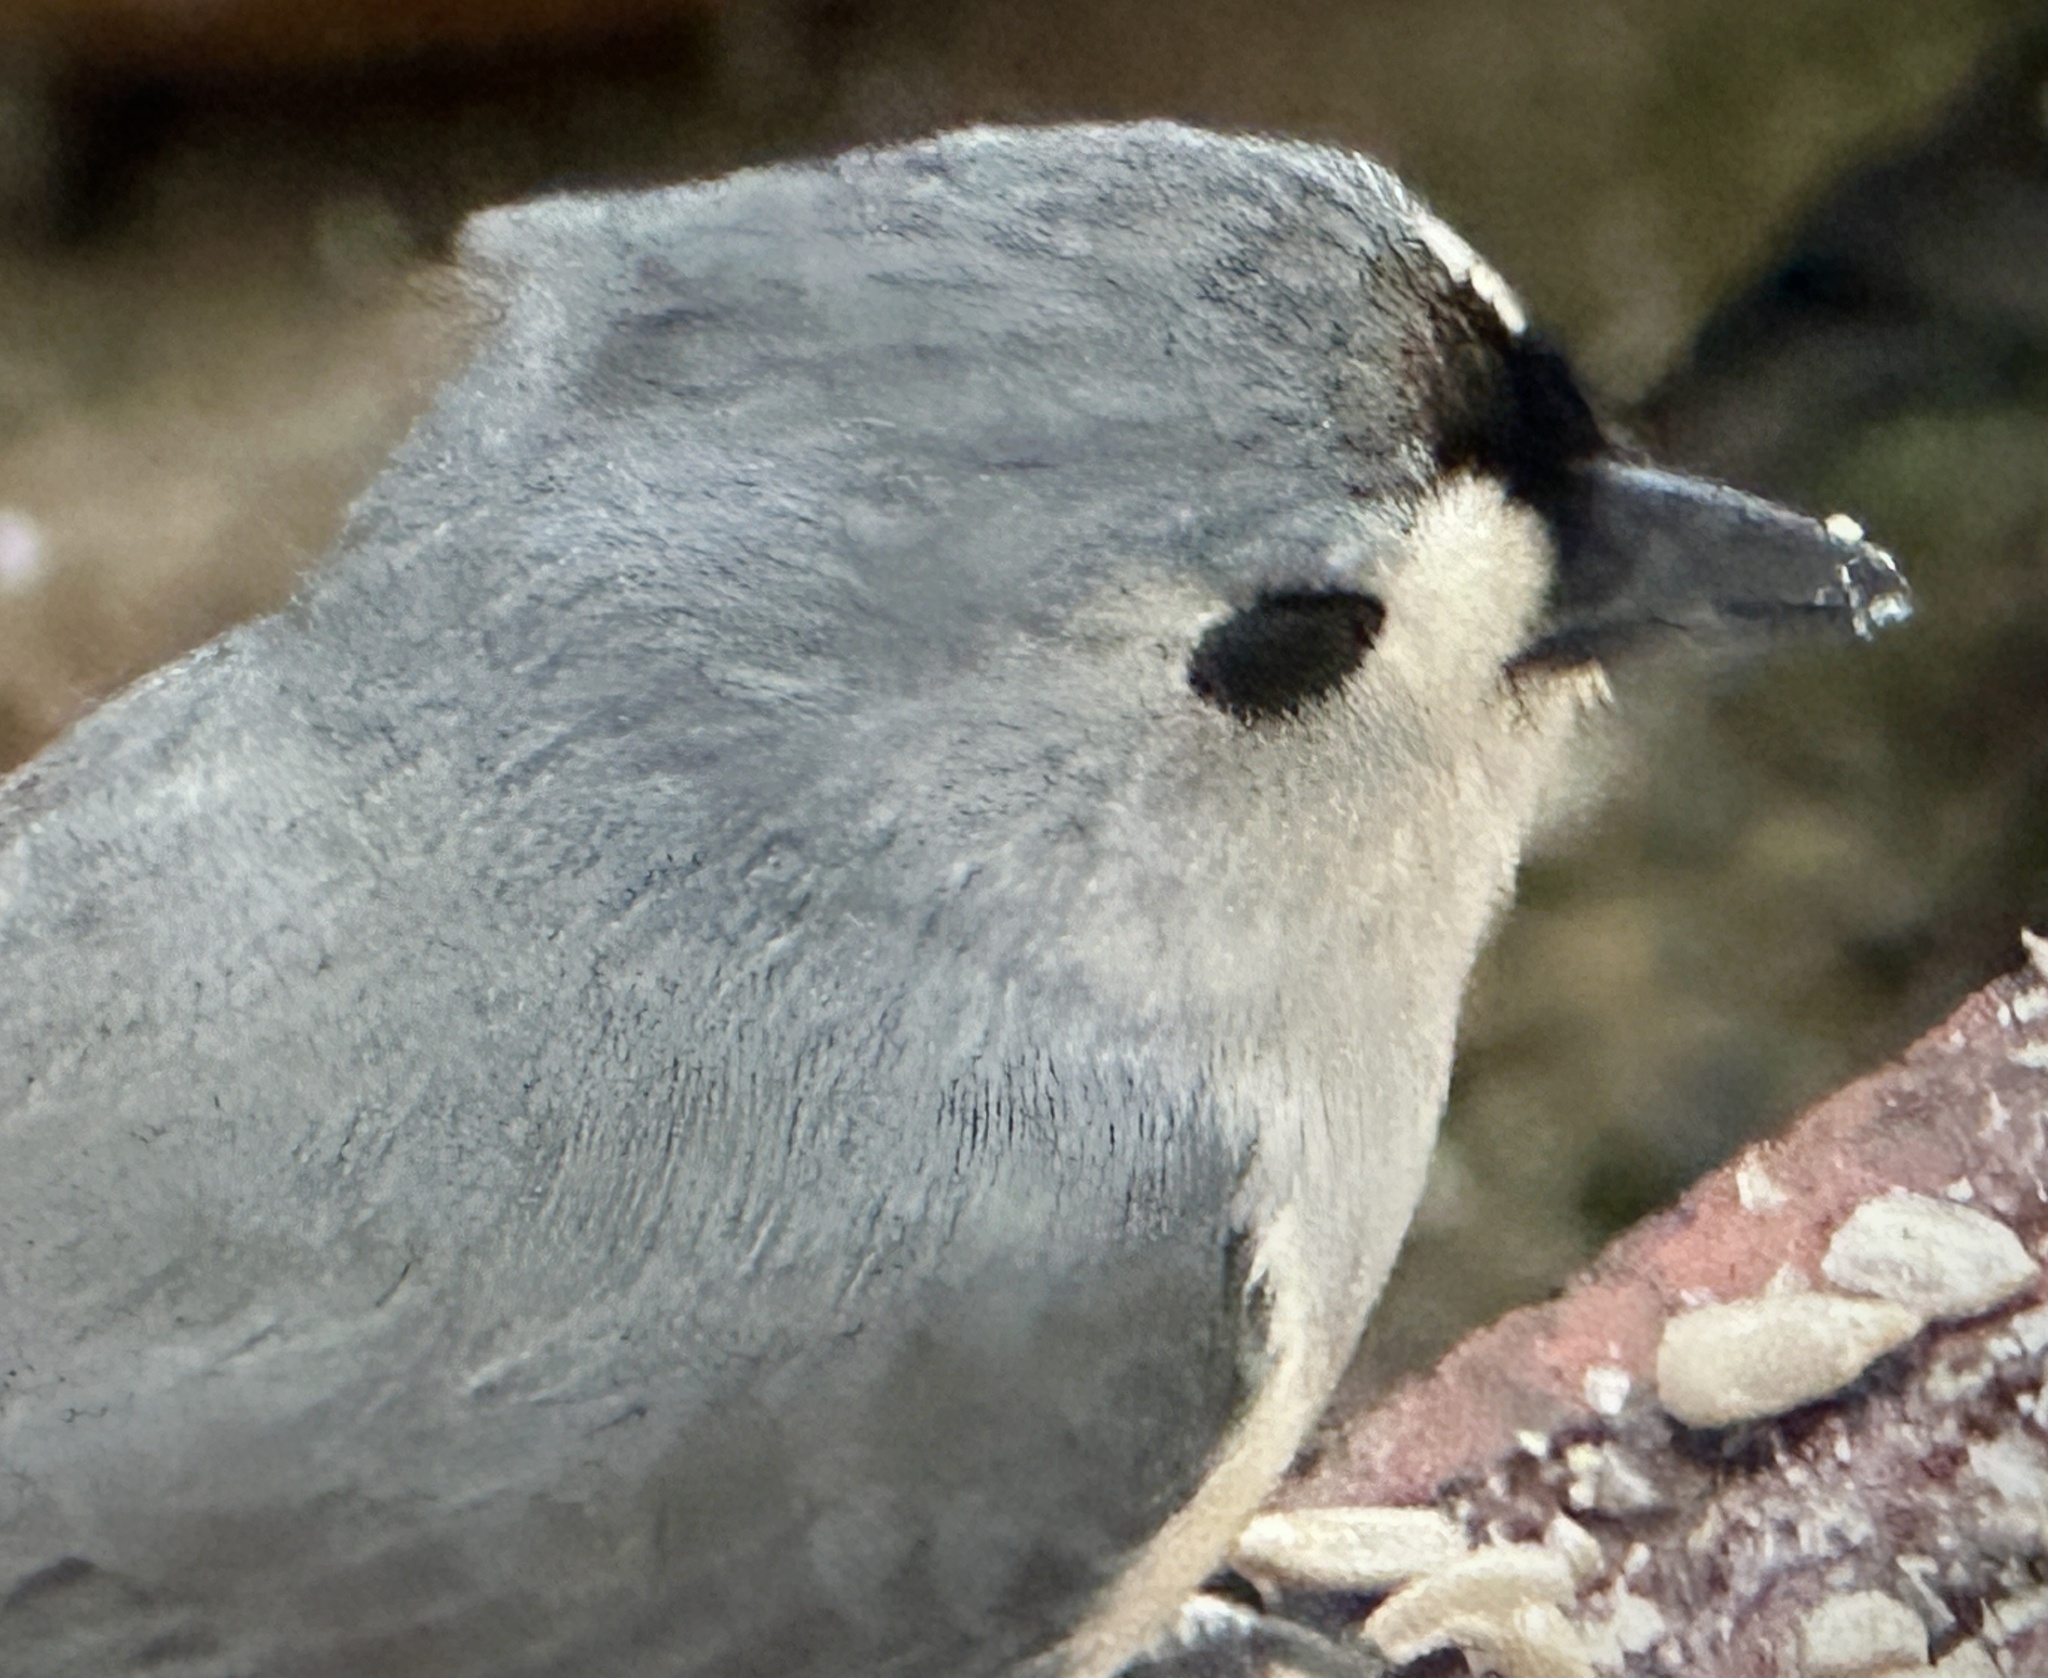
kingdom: Animalia
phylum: Chordata
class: Aves
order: Passeriformes
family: Paridae
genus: Baeolophus
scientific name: Baeolophus bicolor
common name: Tufted titmouse
